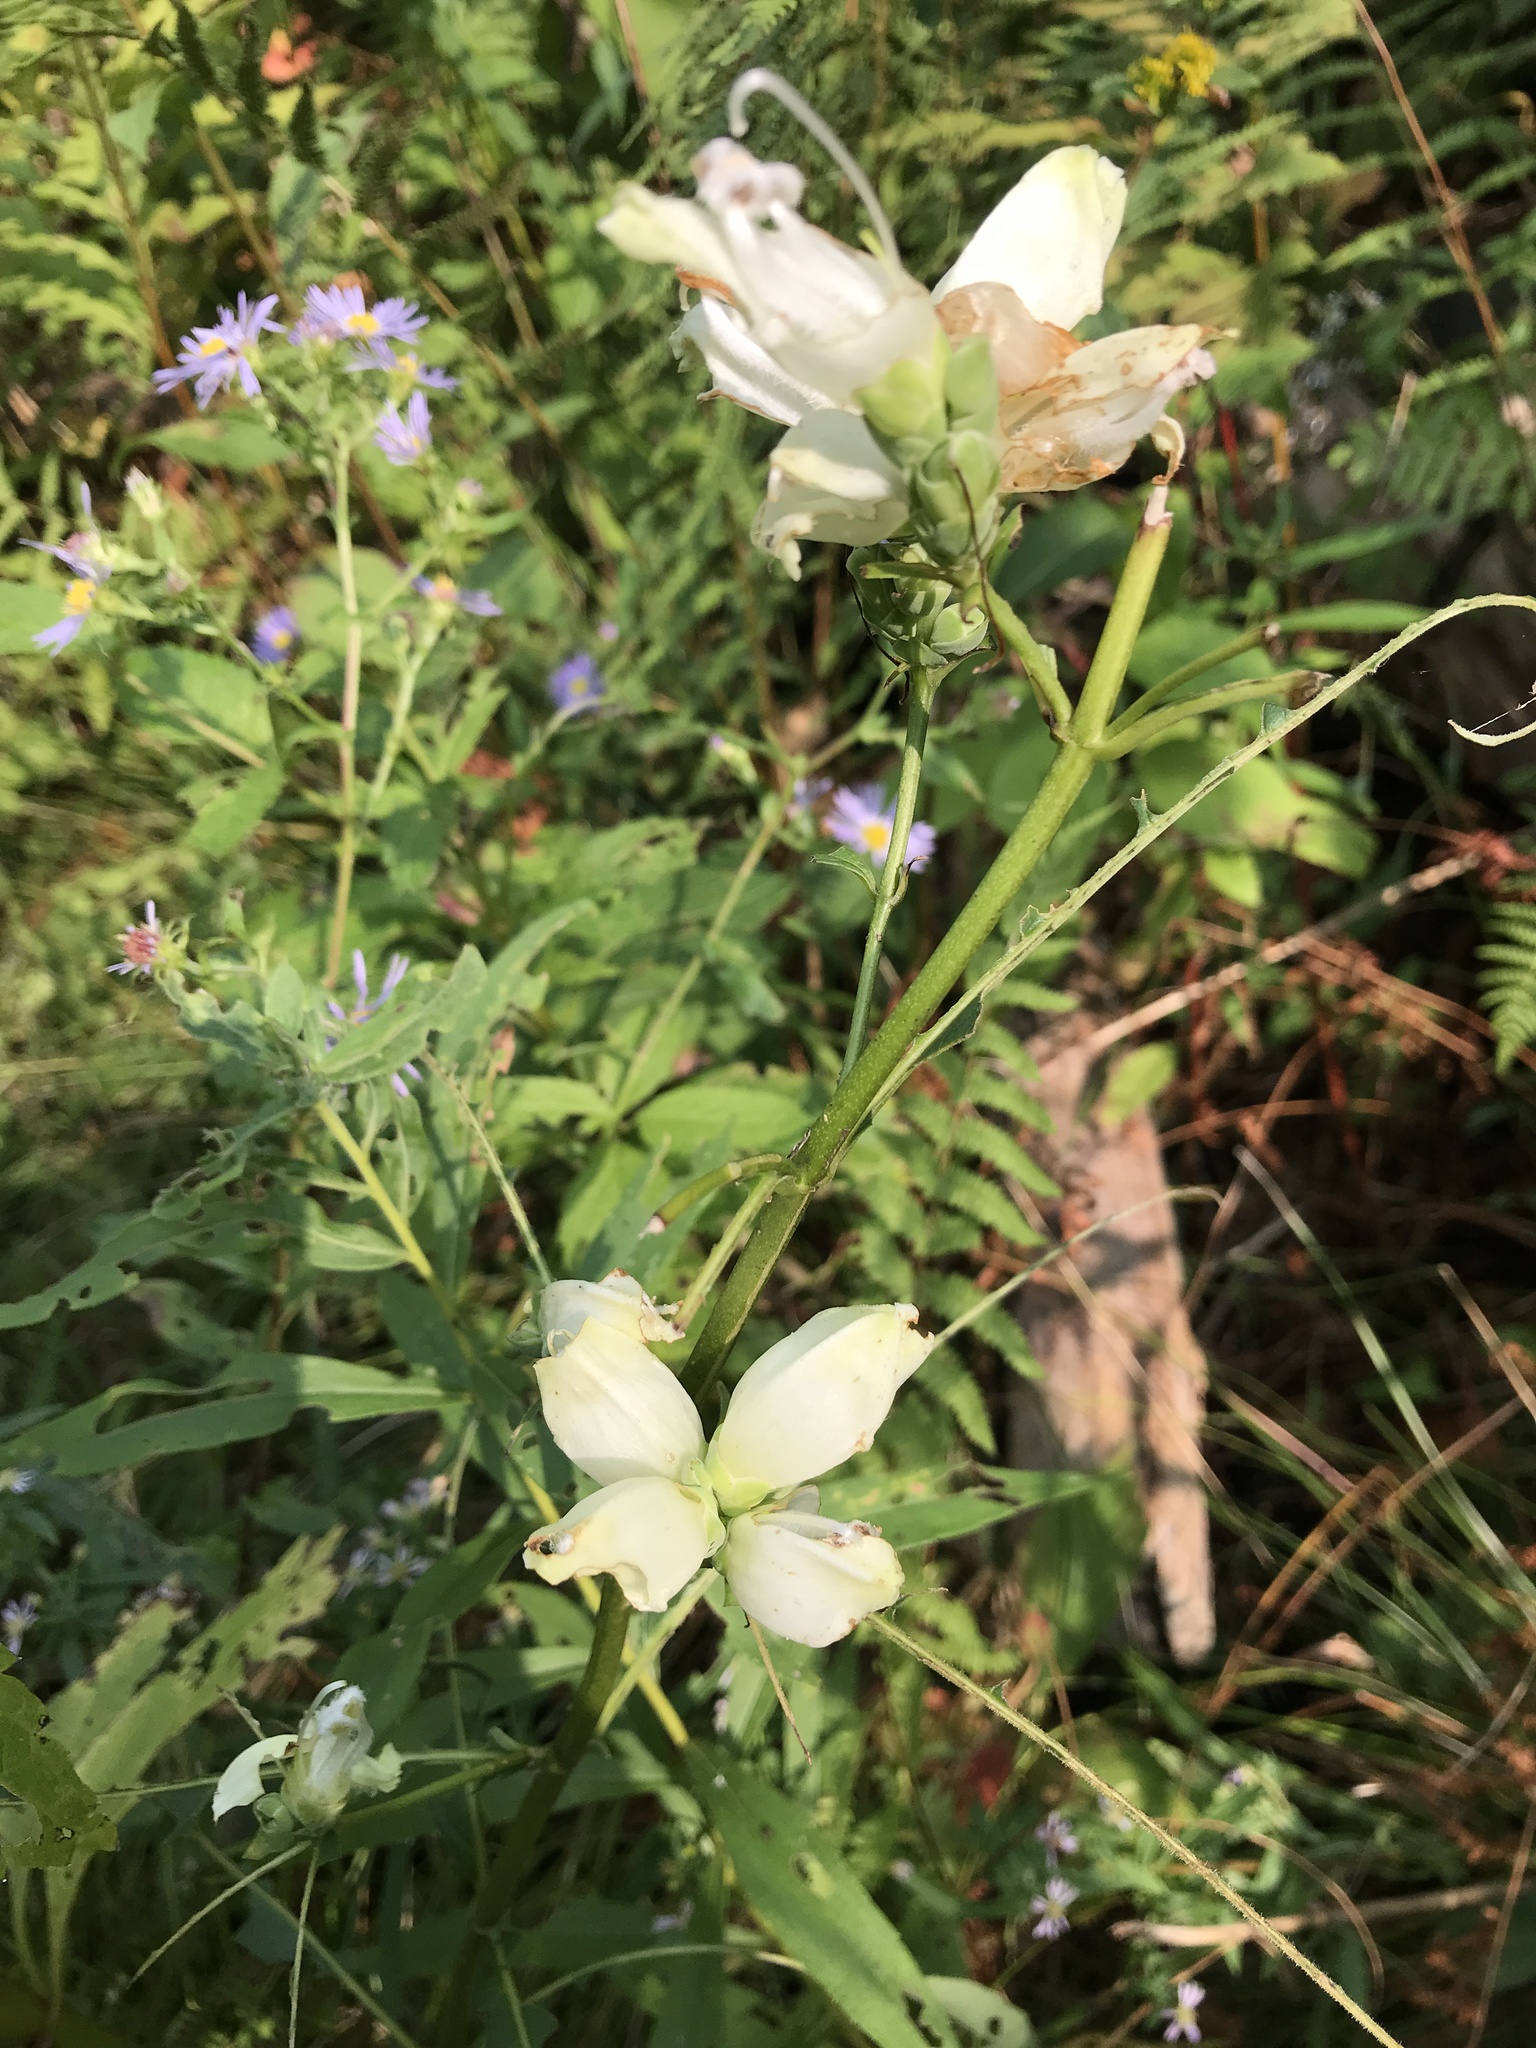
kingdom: Plantae
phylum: Tracheophyta
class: Magnoliopsida
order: Lamiales
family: Plantaginaceae
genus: Chelone
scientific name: Chelone glabra
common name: Snakehead
